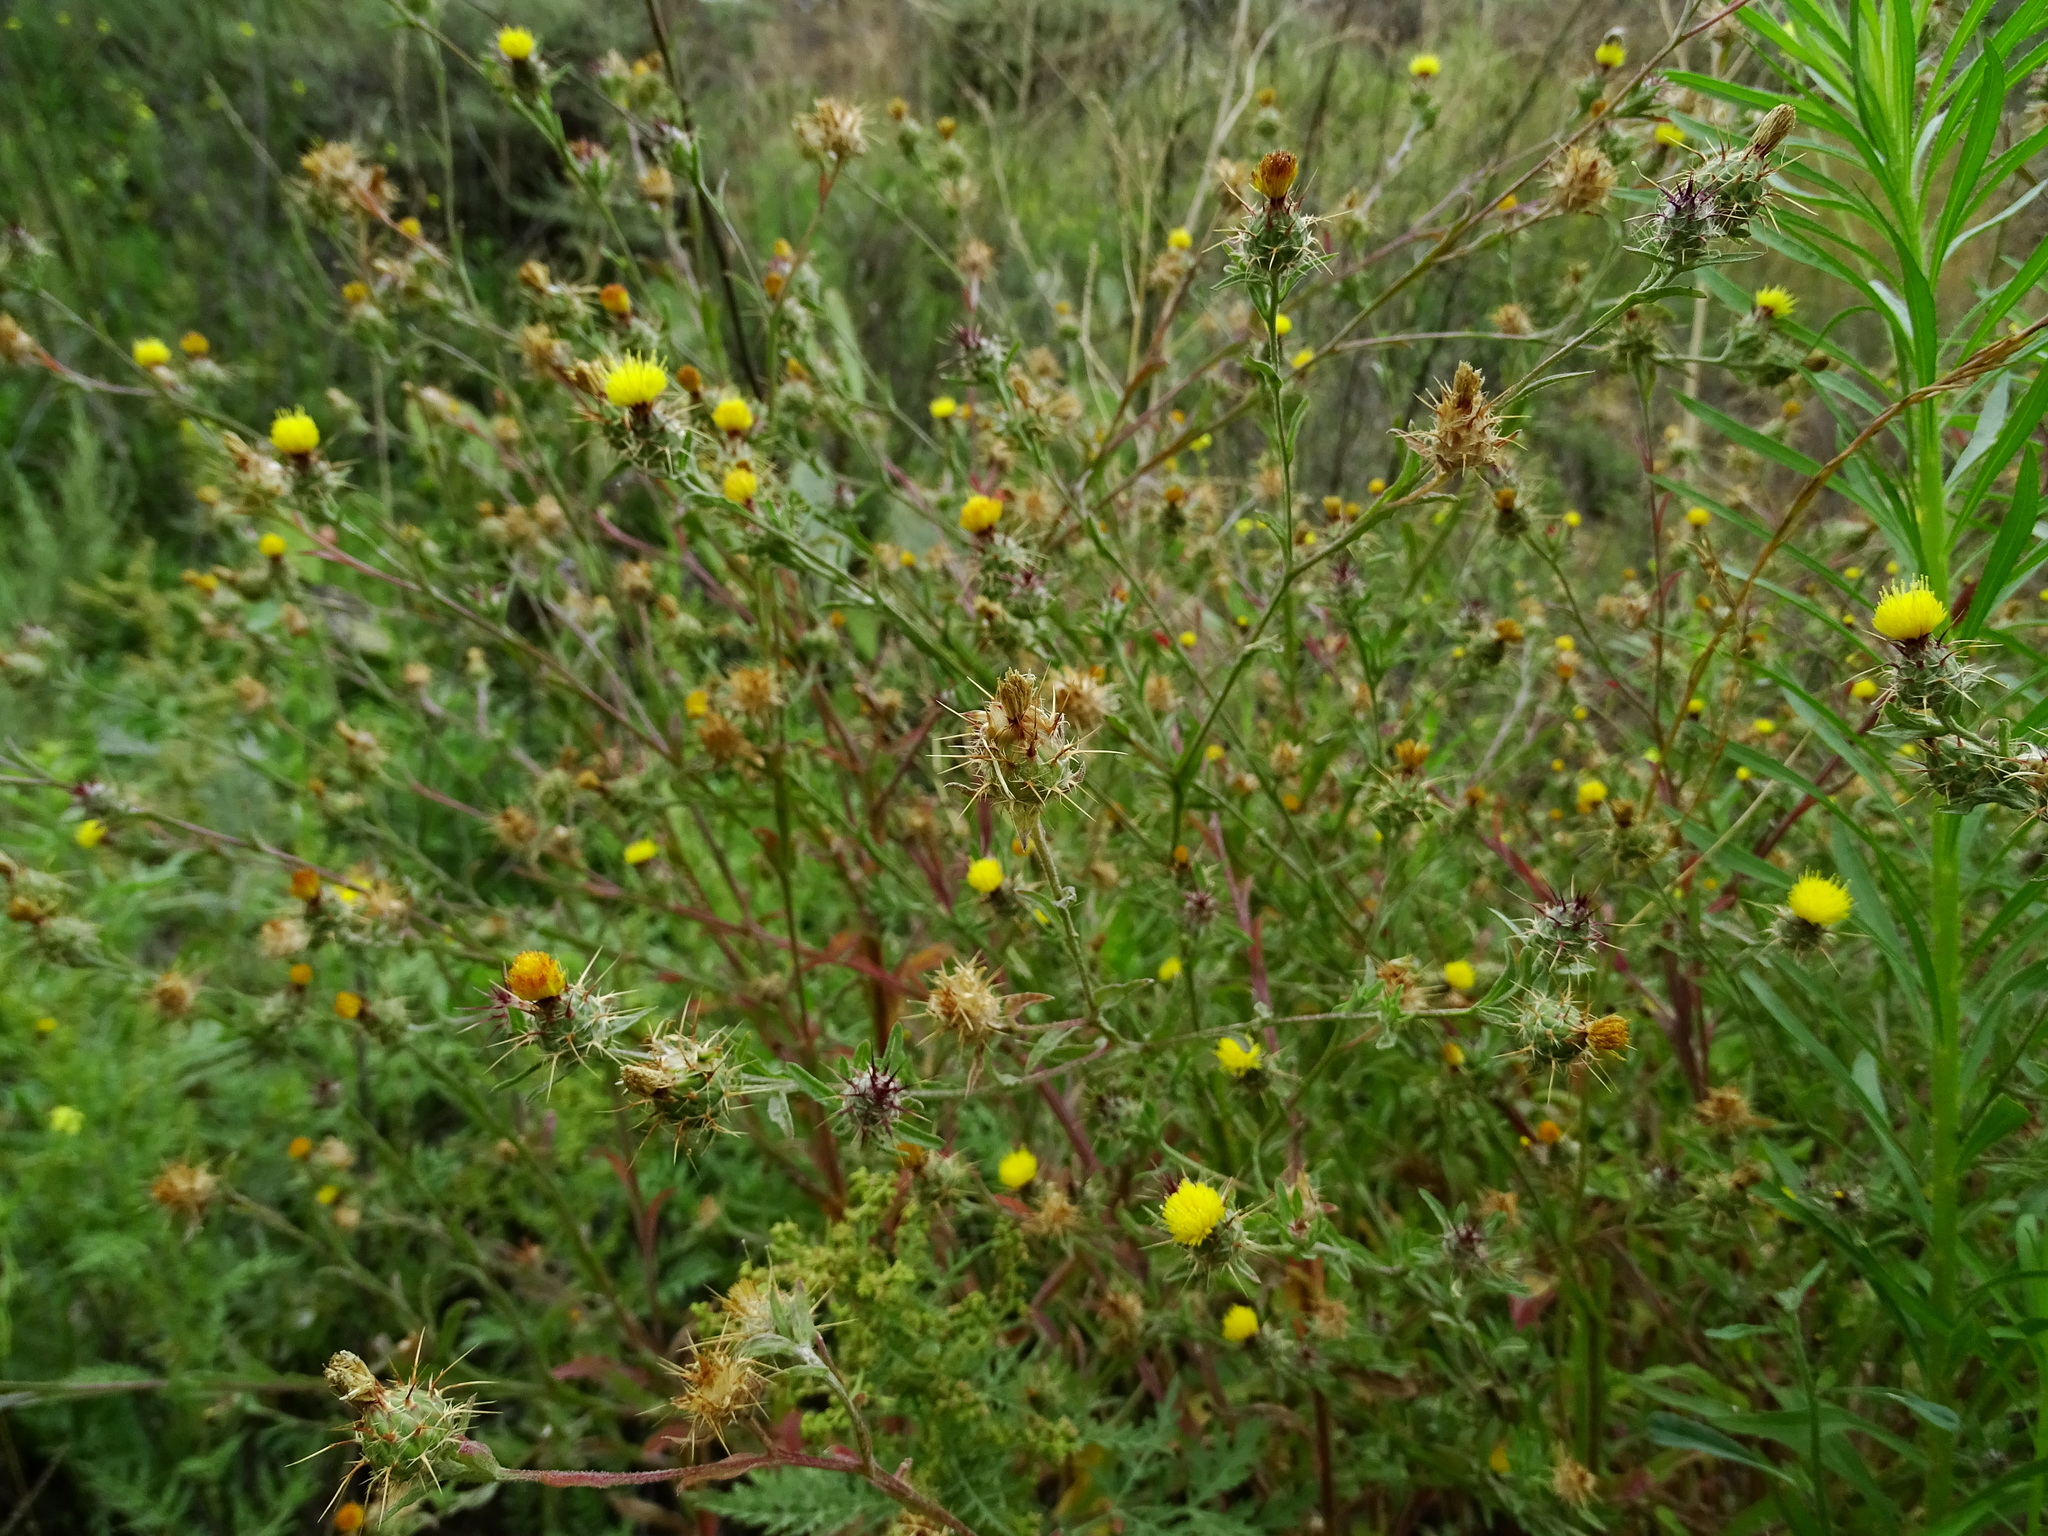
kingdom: Plantae
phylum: Tracheophyta
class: Magnoliopsida
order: Asterales
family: Asteraceae
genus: Centaurea
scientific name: Centaurea melitensis
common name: Maltese star-thistle
